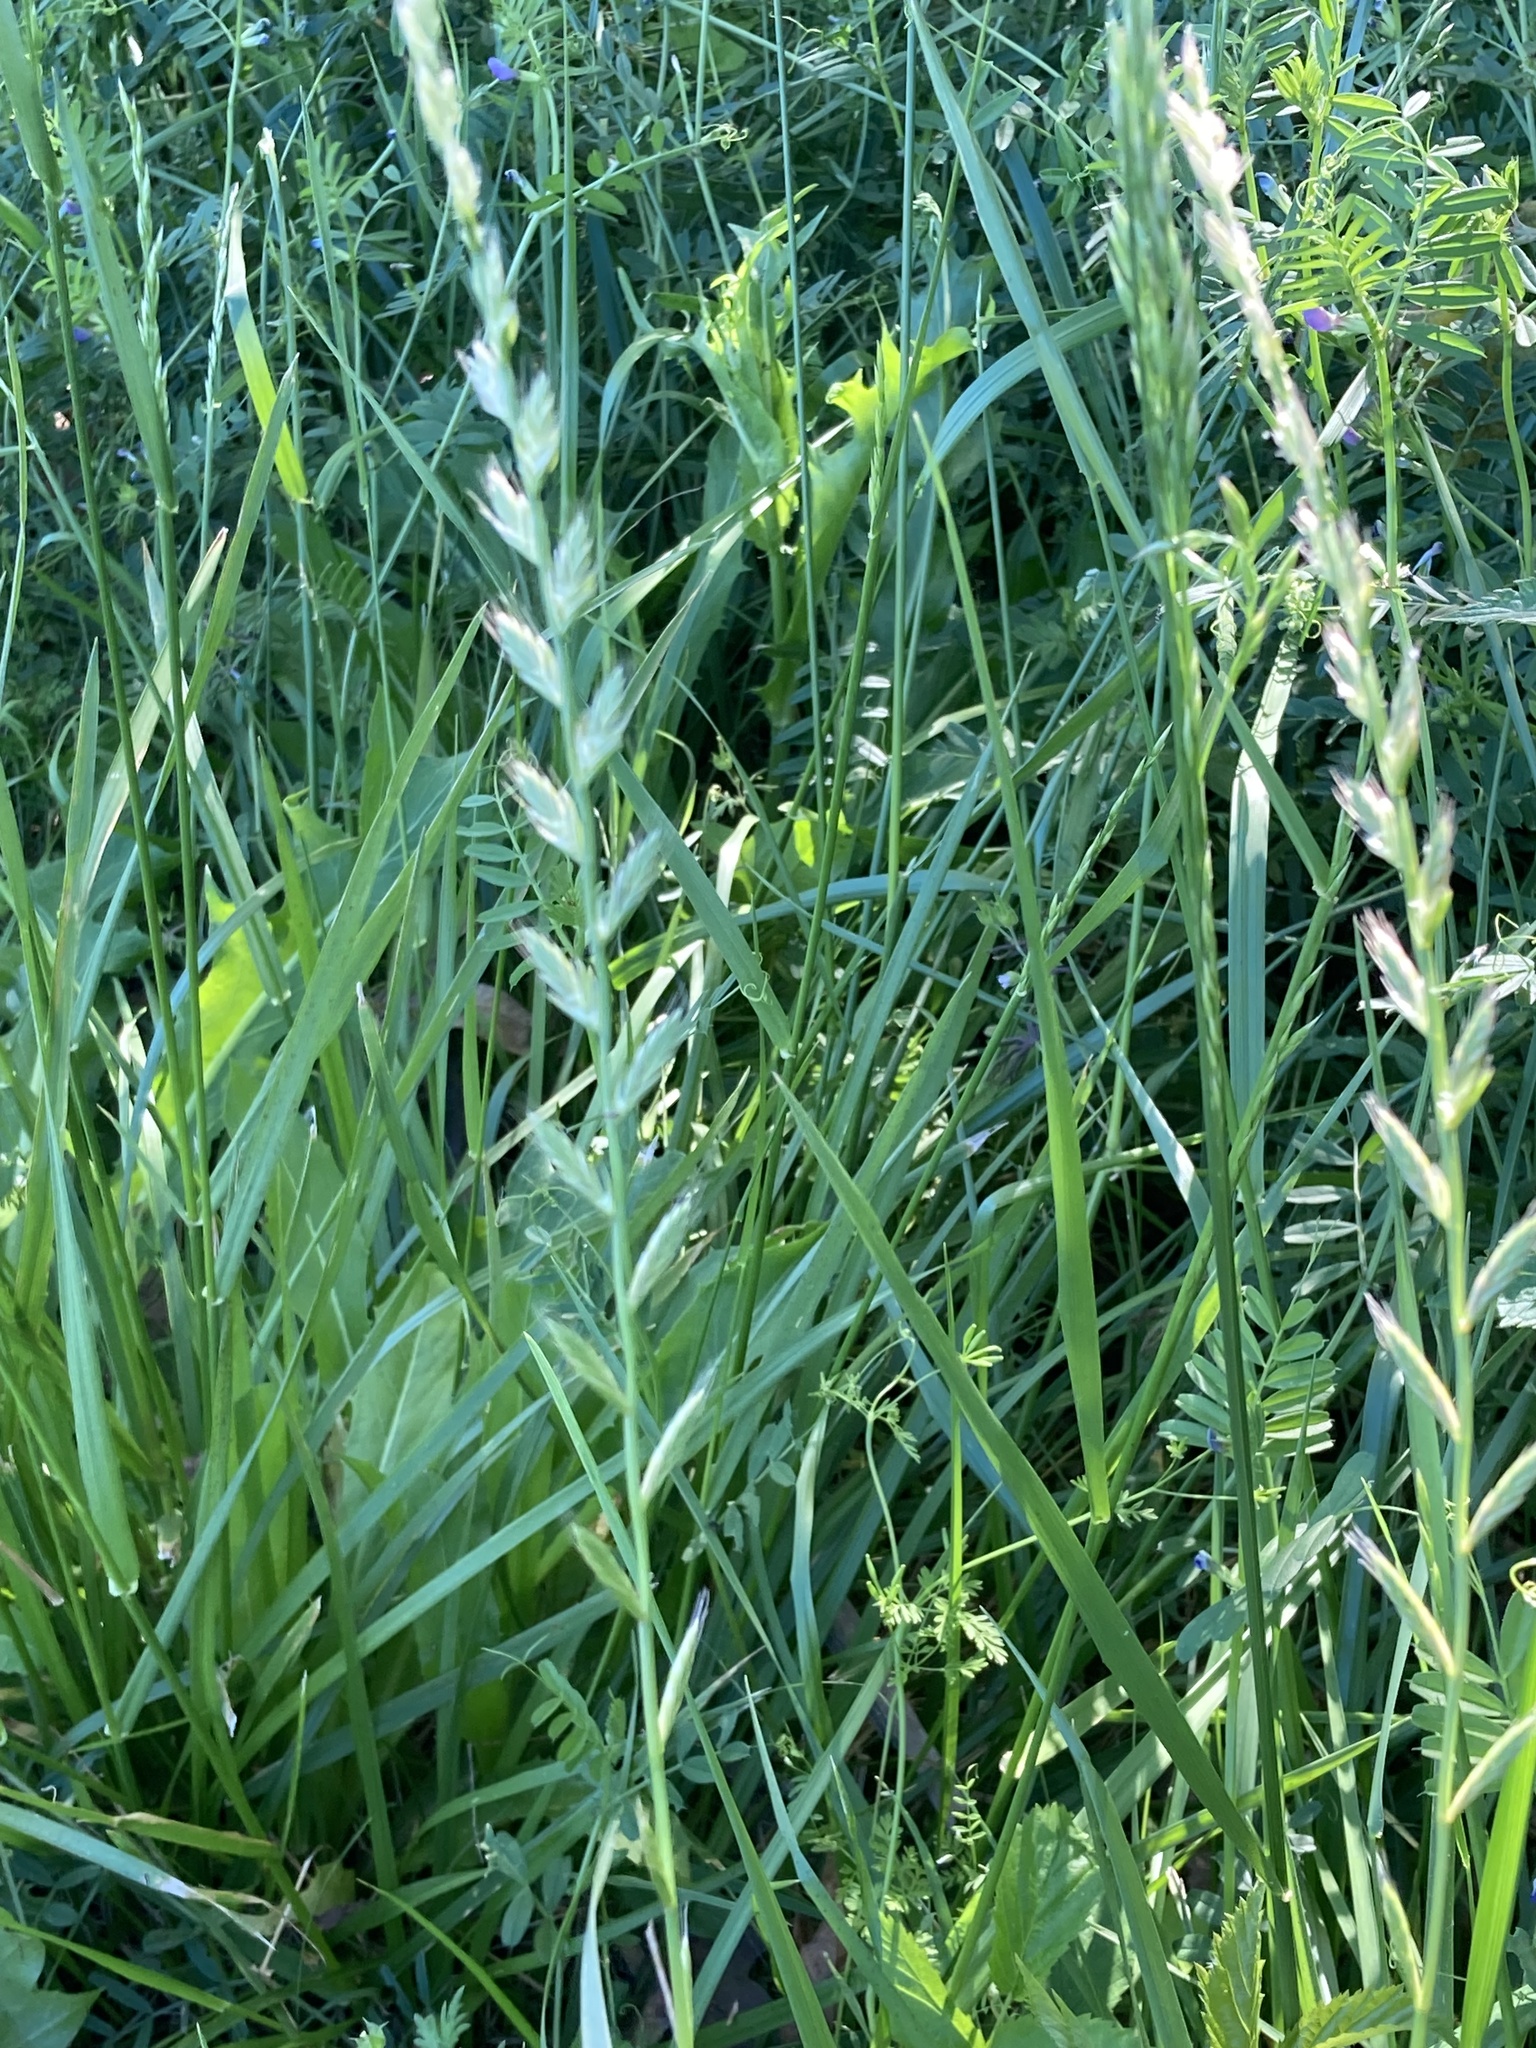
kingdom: Plantae
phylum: Tracheophyta
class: Liliopsida
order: Poales
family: Poaceae
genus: Lolium
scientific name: Lolium multiflorum
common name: Annual ryegrass
